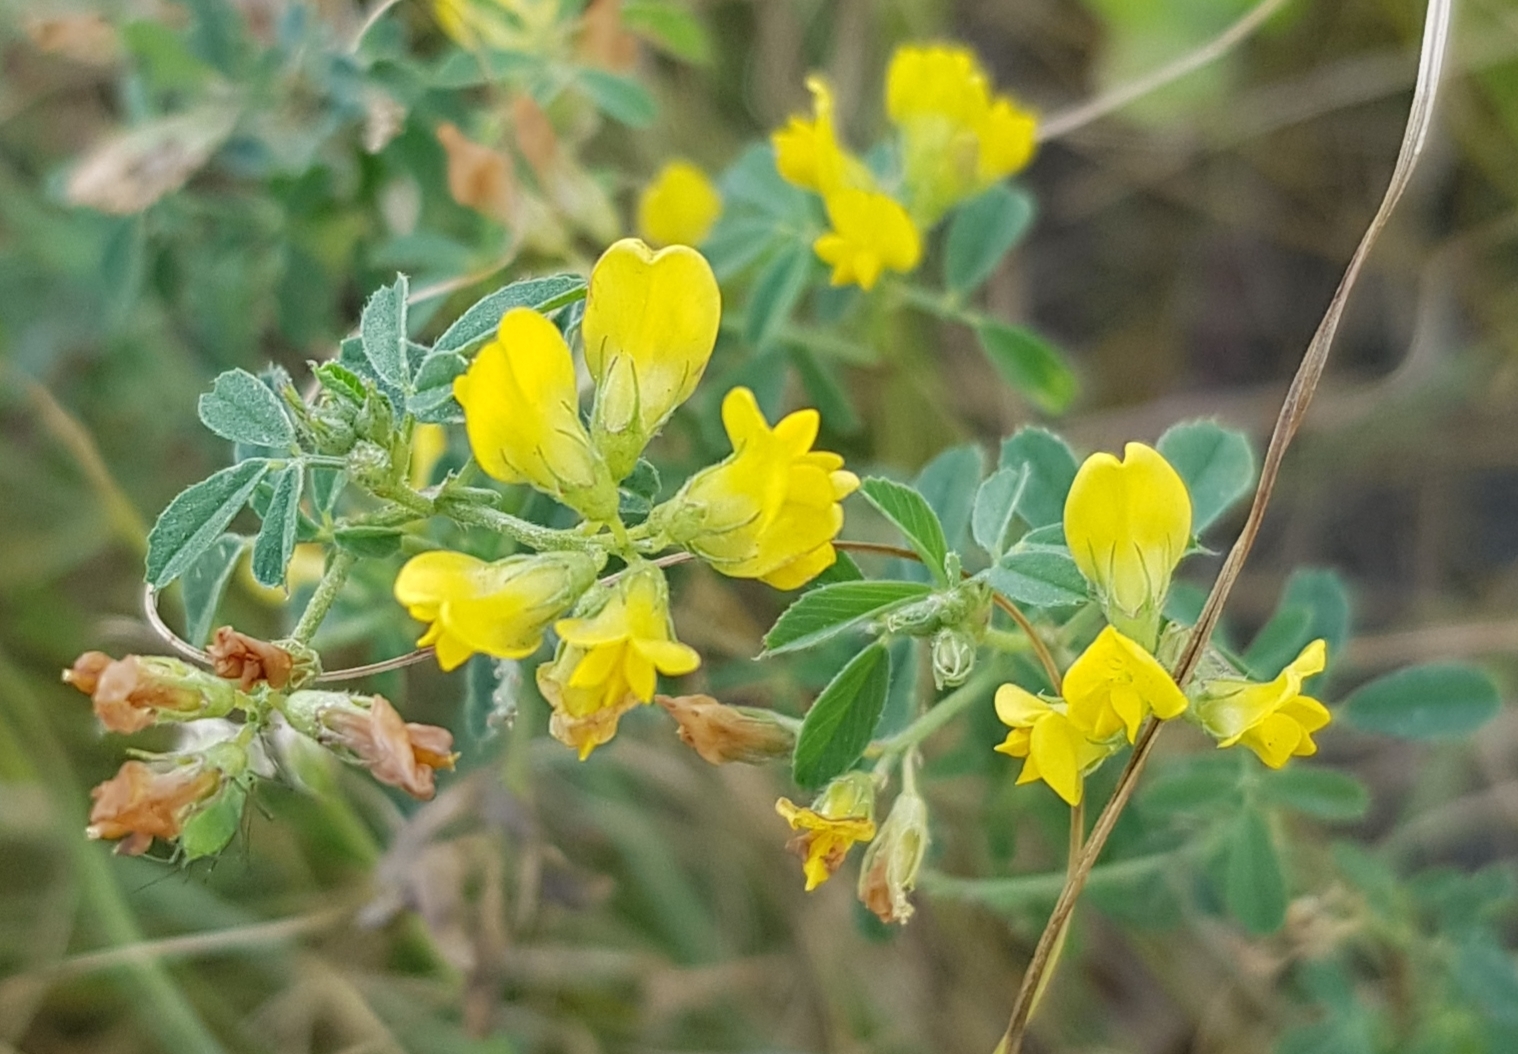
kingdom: Plantae
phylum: Tracheophyta
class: Magnoliopsida
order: Fabales
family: Fabaceae
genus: Medicago
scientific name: Medicago falcata
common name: Sickle medick
